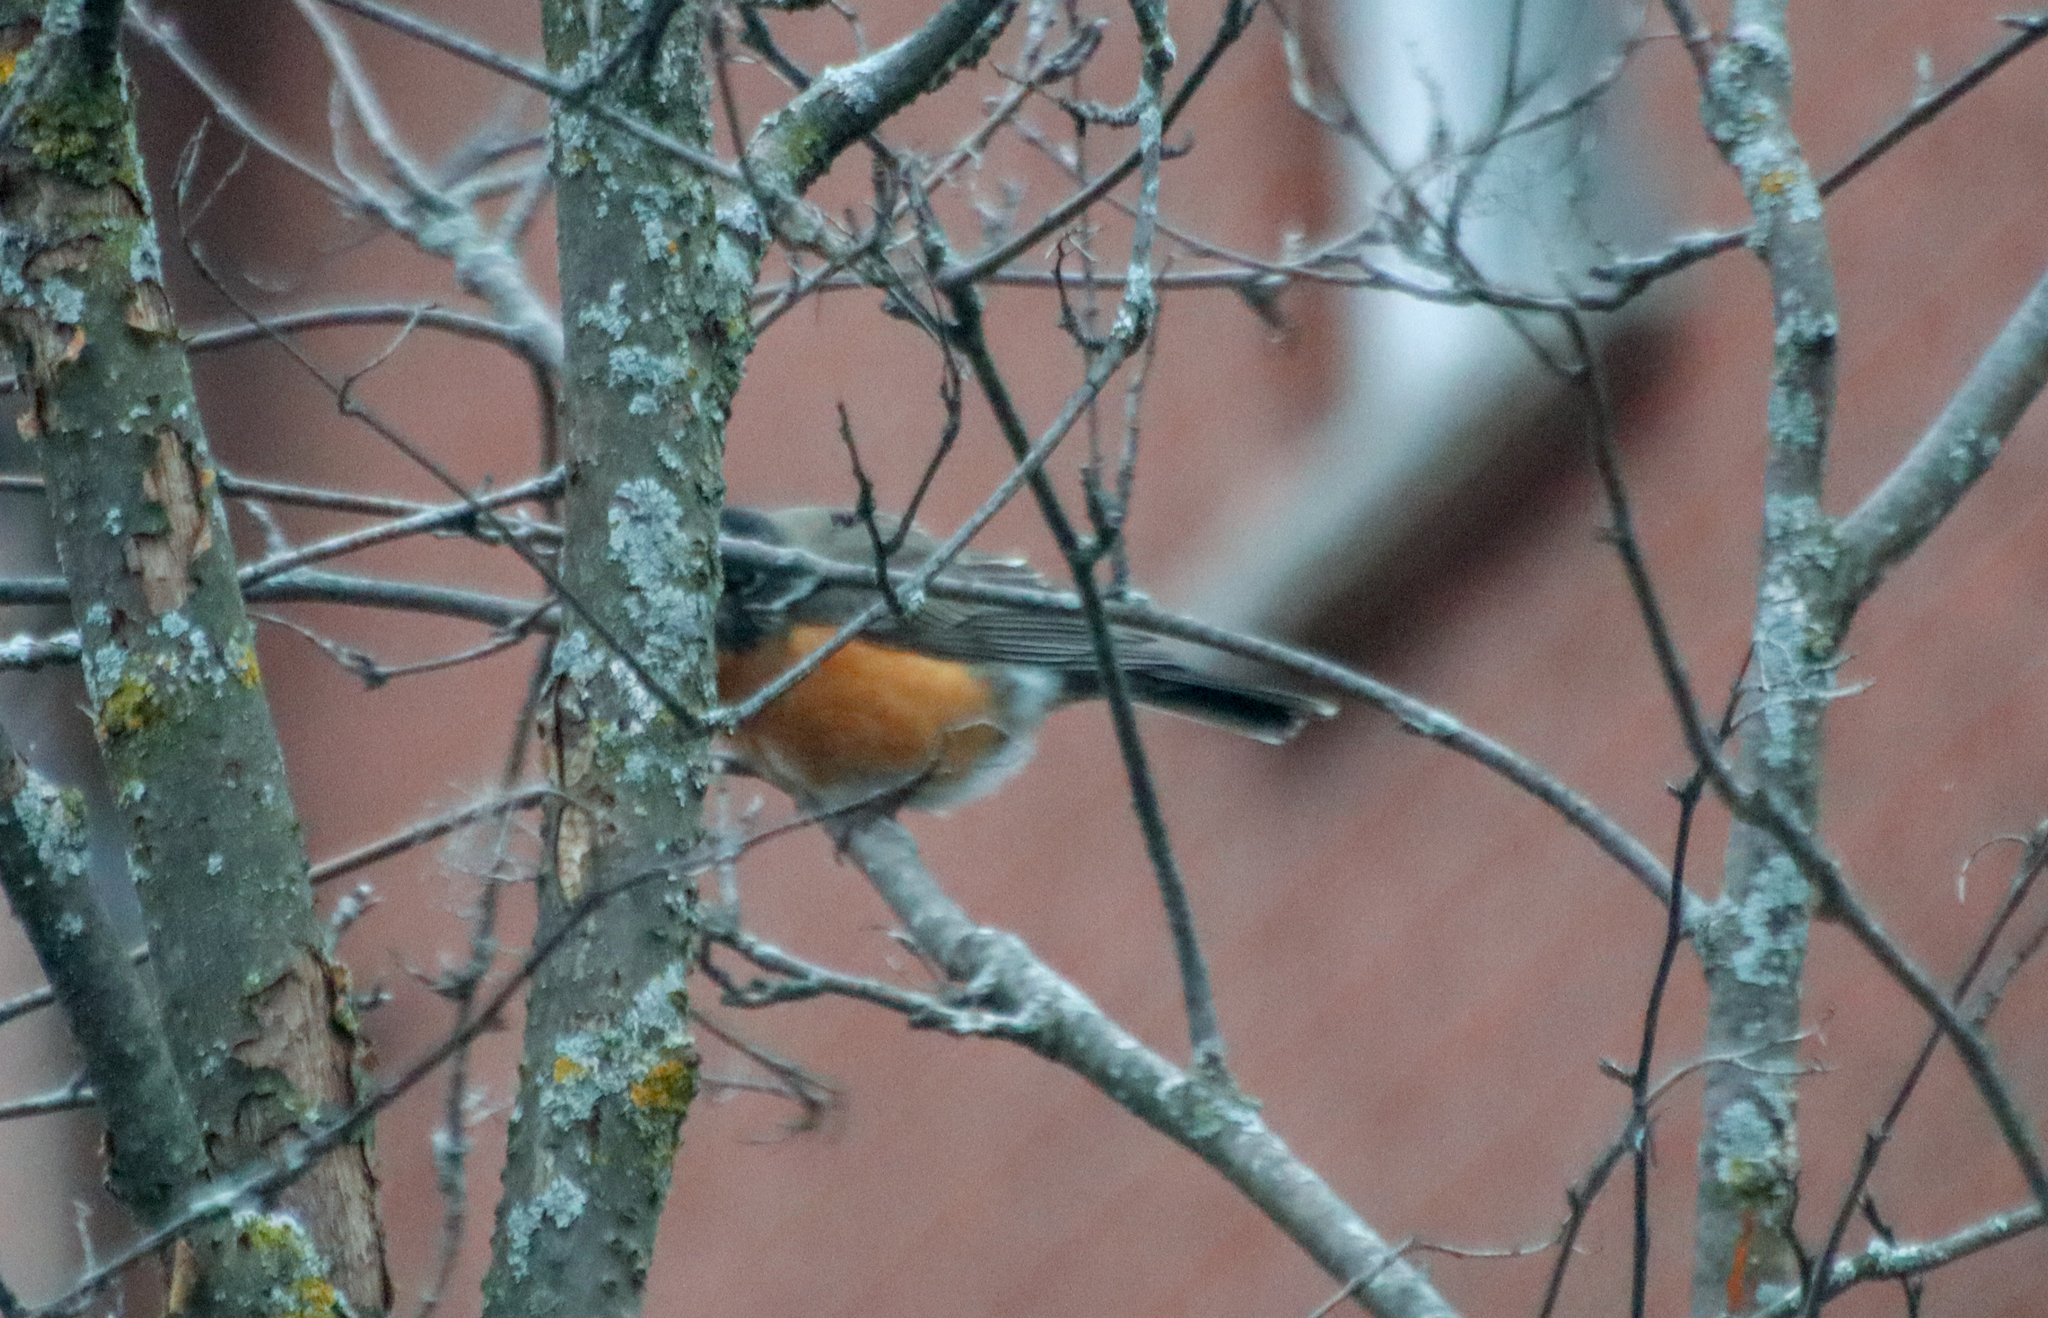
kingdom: Animalia
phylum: Chordata
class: Aves
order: Passeriformes
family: Turdidae
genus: Turdus
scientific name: Turdus migratorius
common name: American robin
